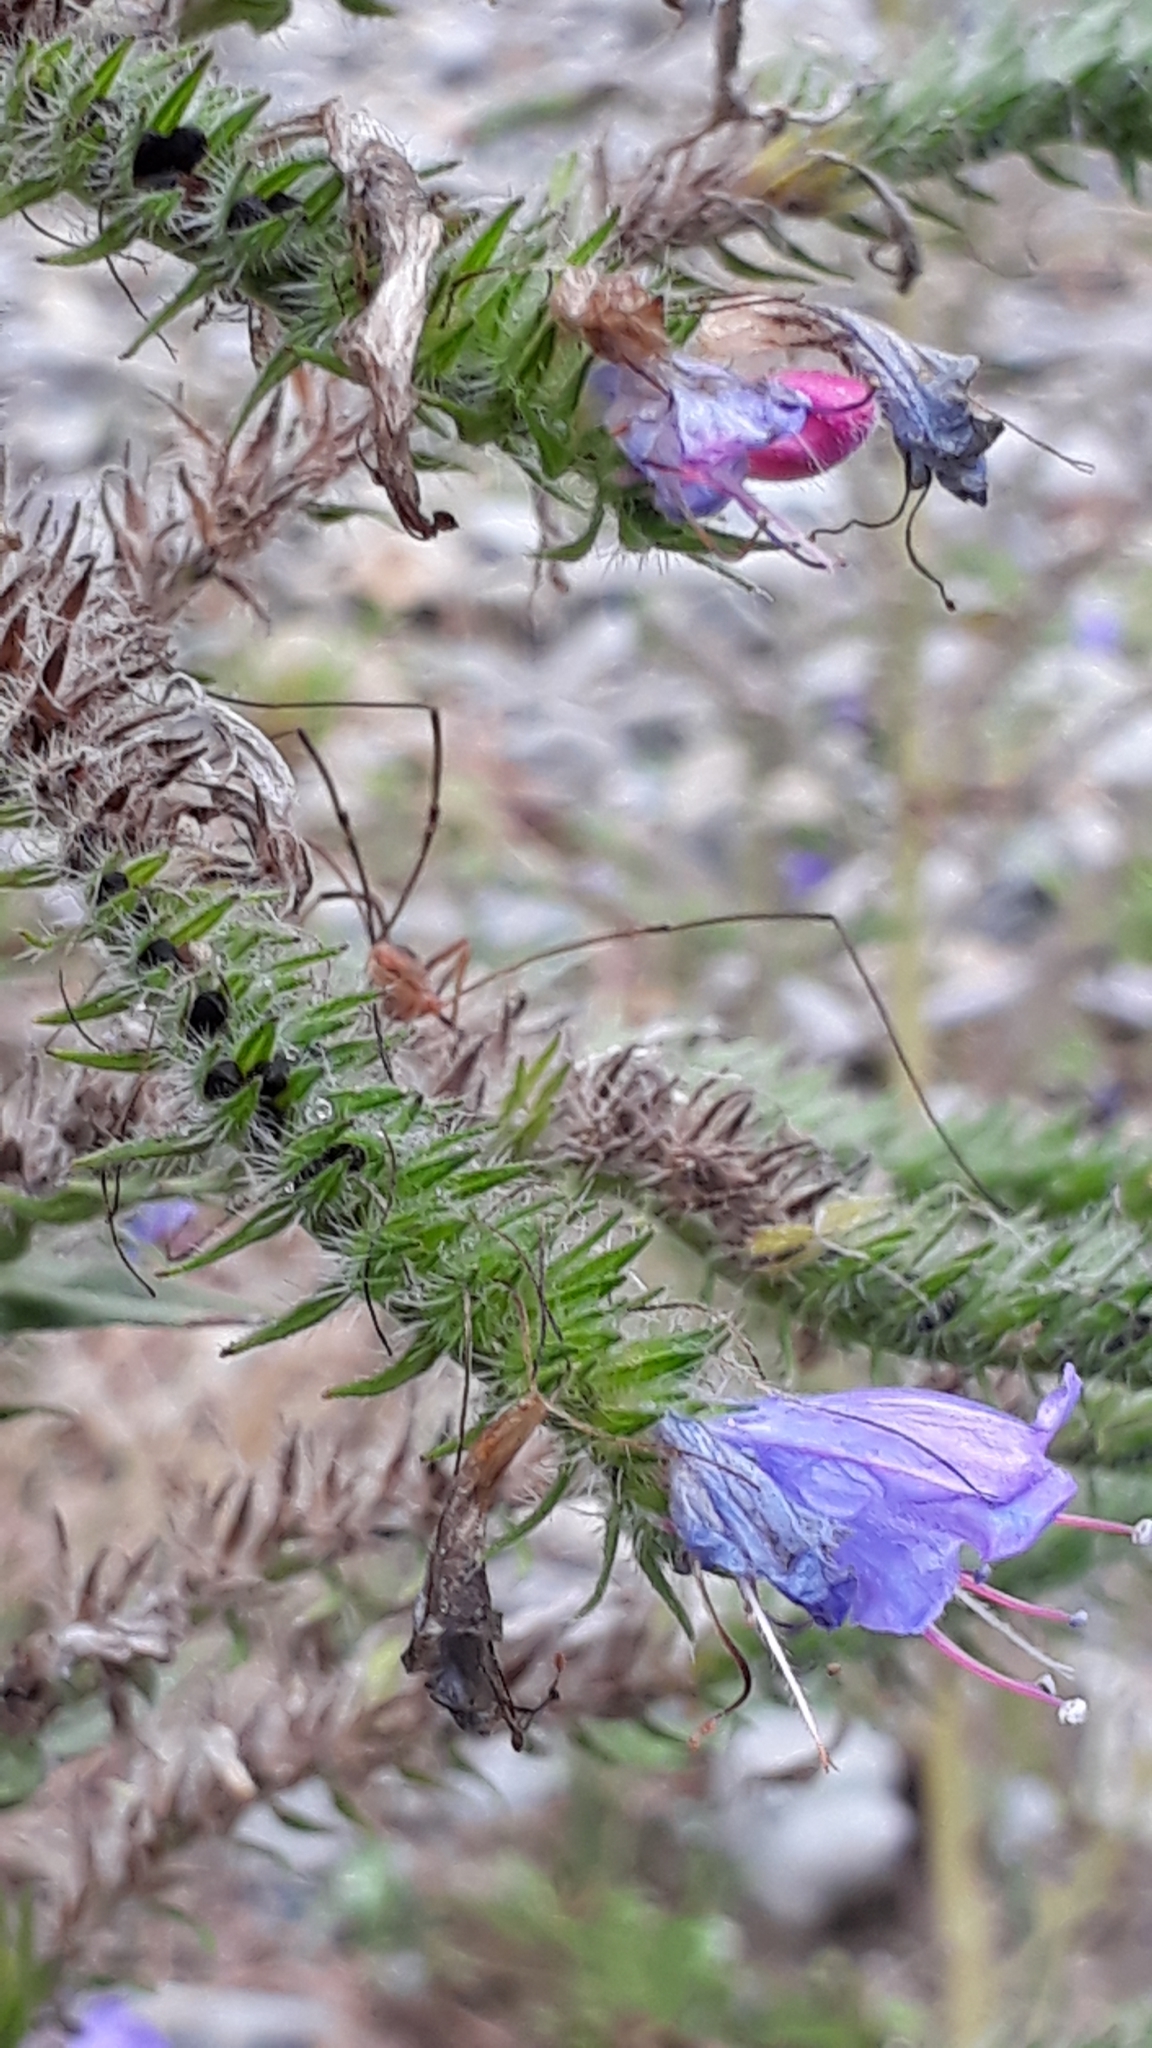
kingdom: Plantae
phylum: Tracheophyta
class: Magnoliopsida
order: Boraginales
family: Boraginaceae
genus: Echium
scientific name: Echium vulgare
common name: Common viper's bugloss
